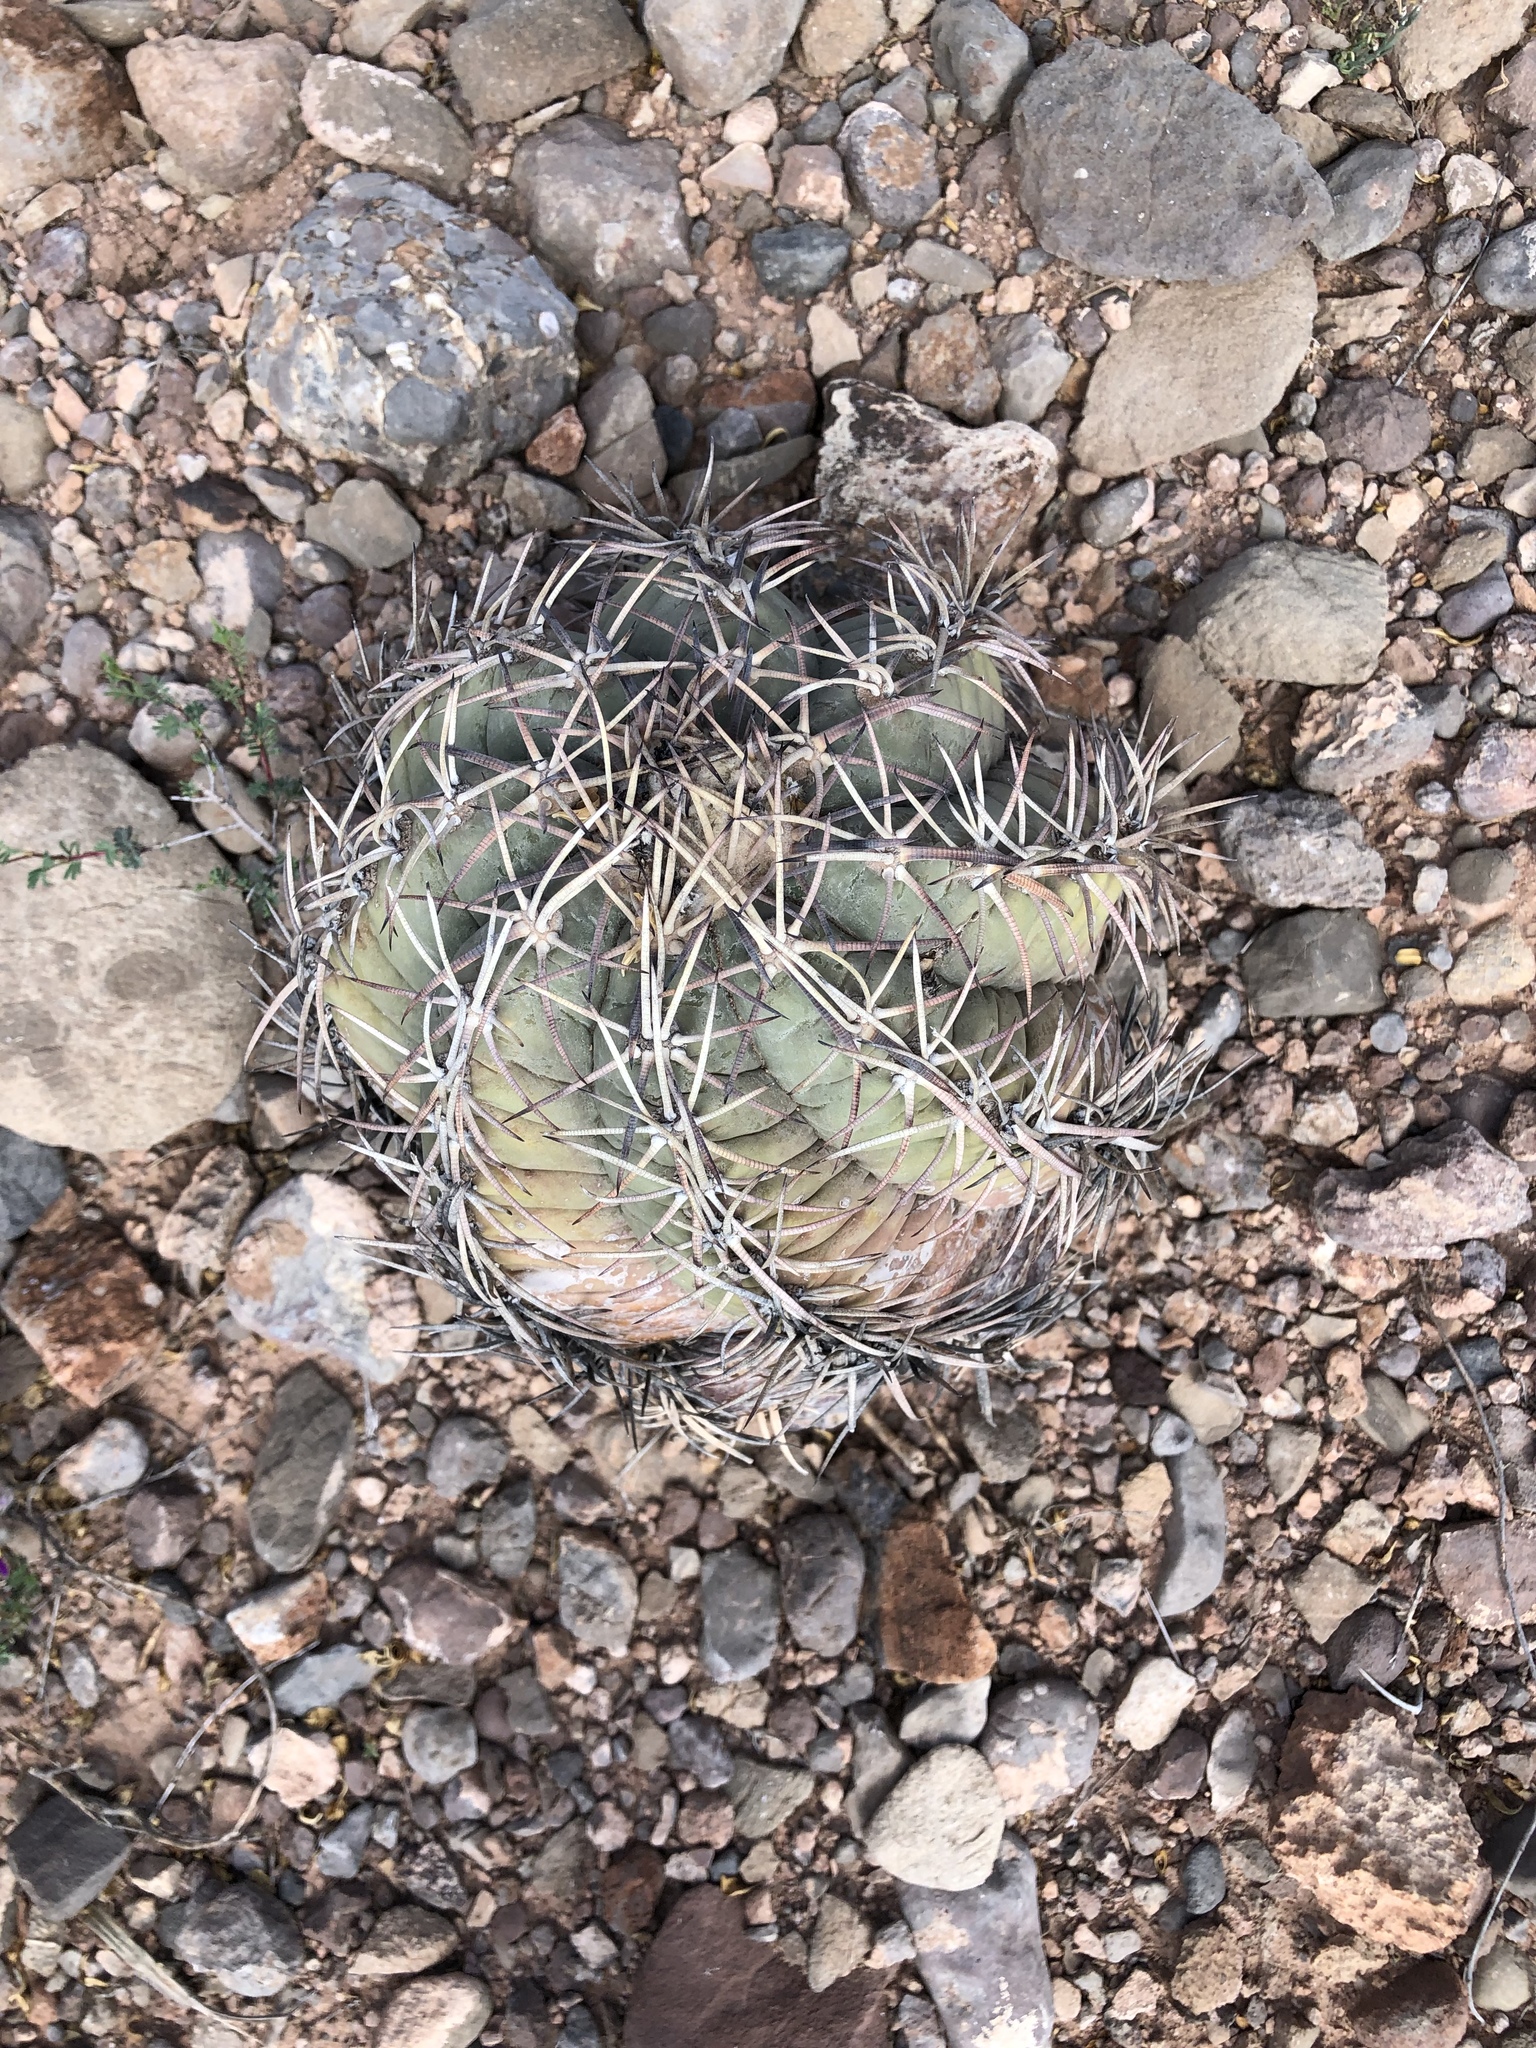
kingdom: Plantae
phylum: Tracheophyta
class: Magnoliopsida
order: Caryophyllales
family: Cactaceae
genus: Echinocactus
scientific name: Echinocactus horizonthalonius
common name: Devilshead
